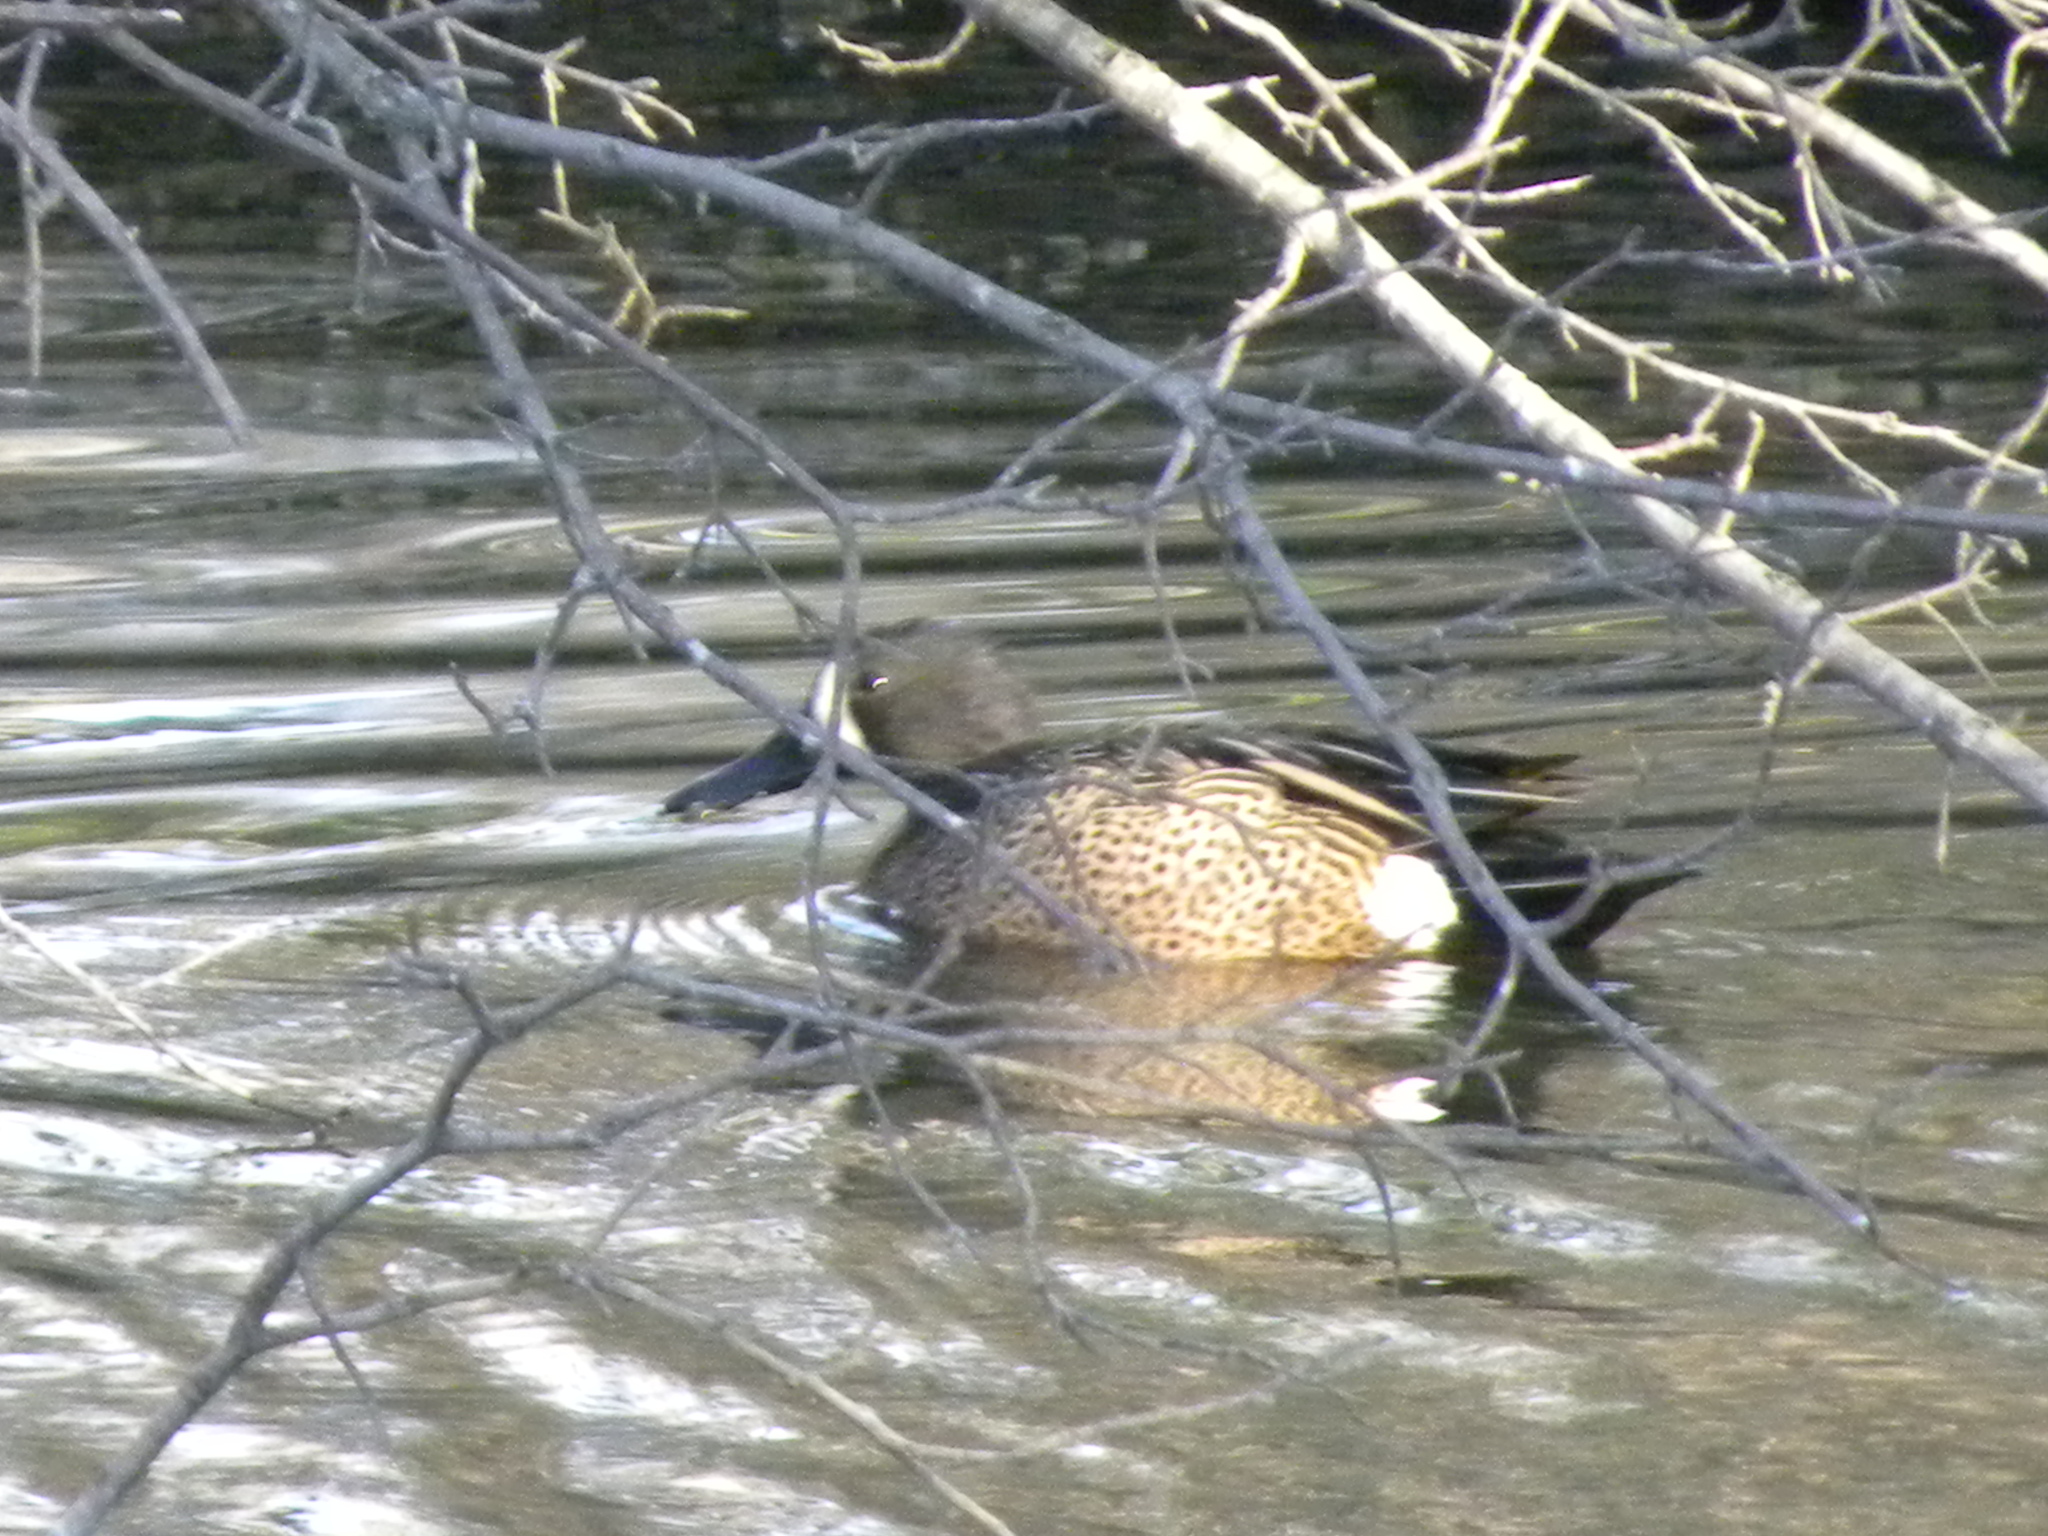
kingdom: Animalia
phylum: Chordata
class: Aves
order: Anseriformes
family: Anatidae
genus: Spatula
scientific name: Spatula discors
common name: Blue-winged teal
